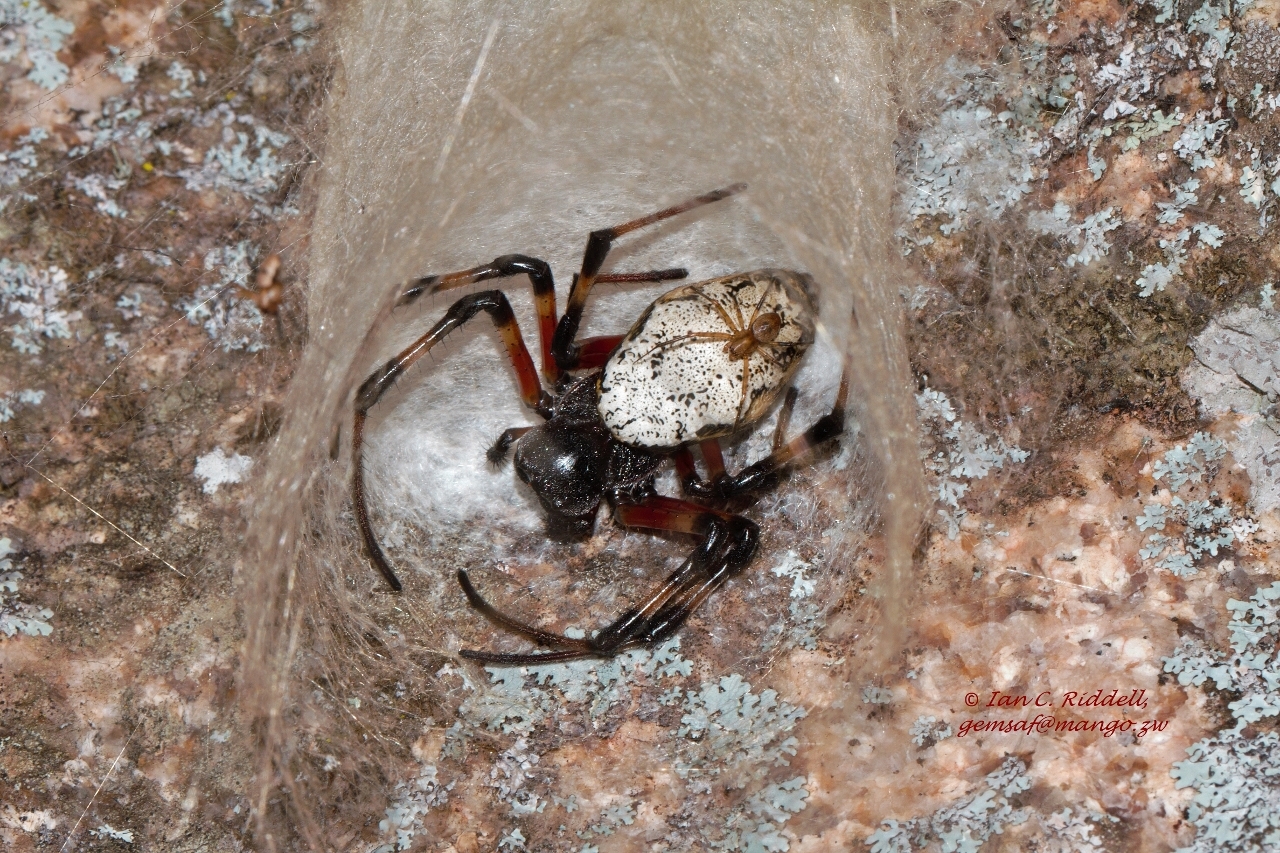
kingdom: Animalia
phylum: Arthropoda
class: Arachnida
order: Araneae
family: Araneidae
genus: Nephilingis
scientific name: Nephilingis cruentata
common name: African hermit spider
